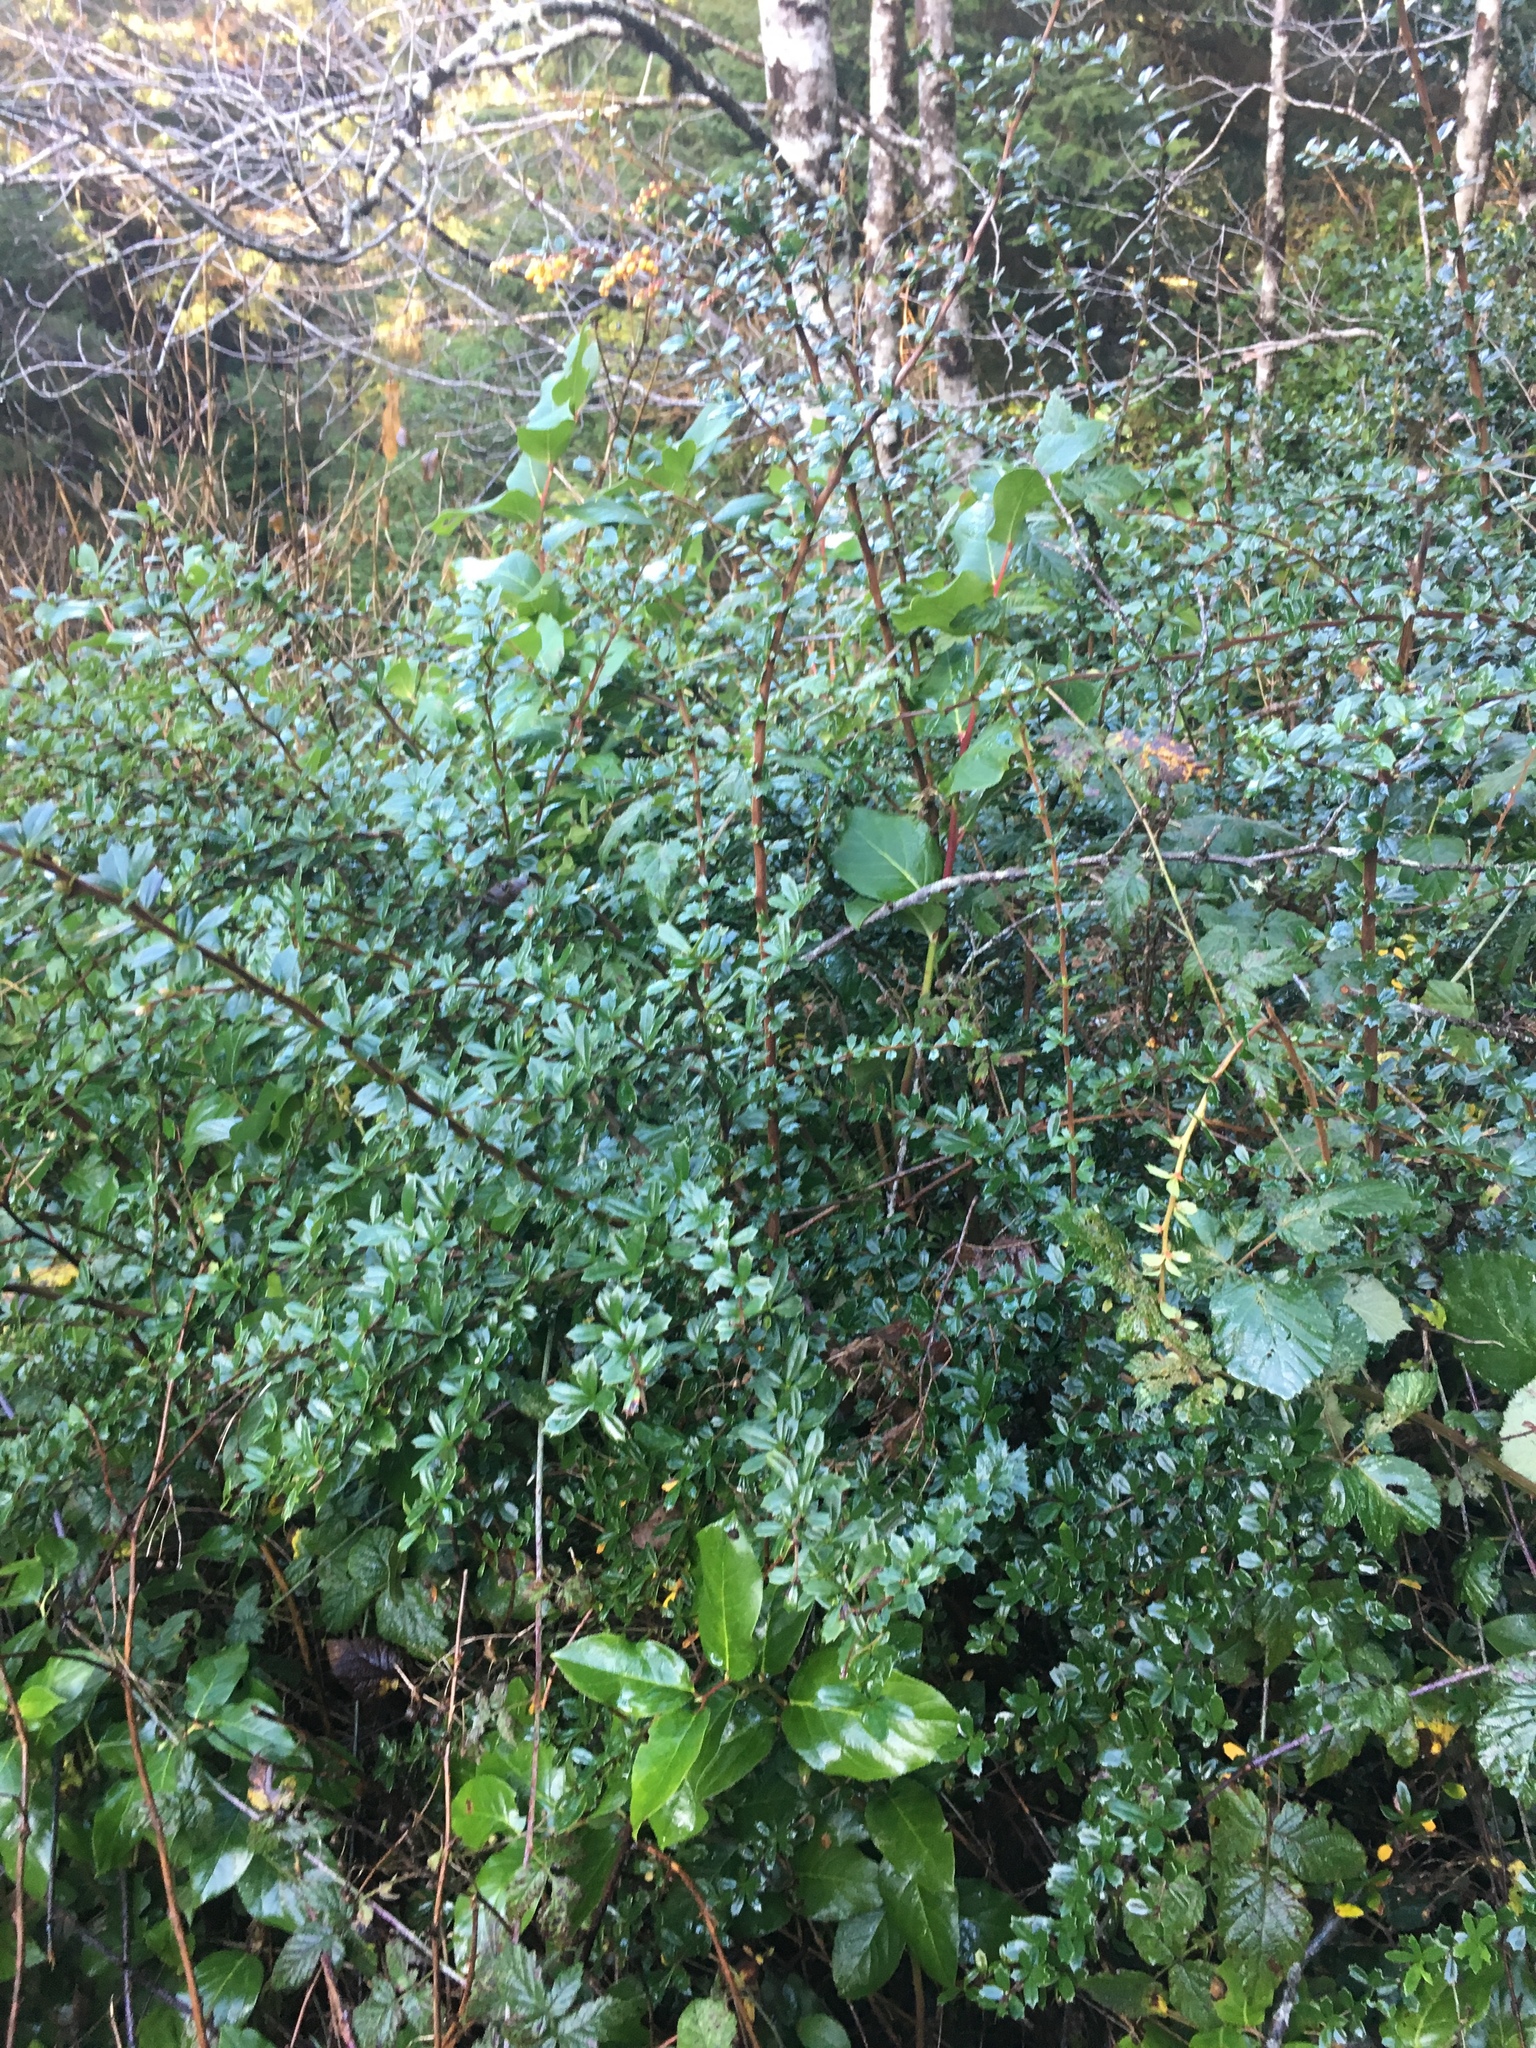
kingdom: Plantae
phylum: Tracheophyta
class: Magnoliopsida
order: Ranunculales
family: Berberidaceae
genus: Berberis
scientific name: Berberis darwinii
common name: Darwin's barberry
